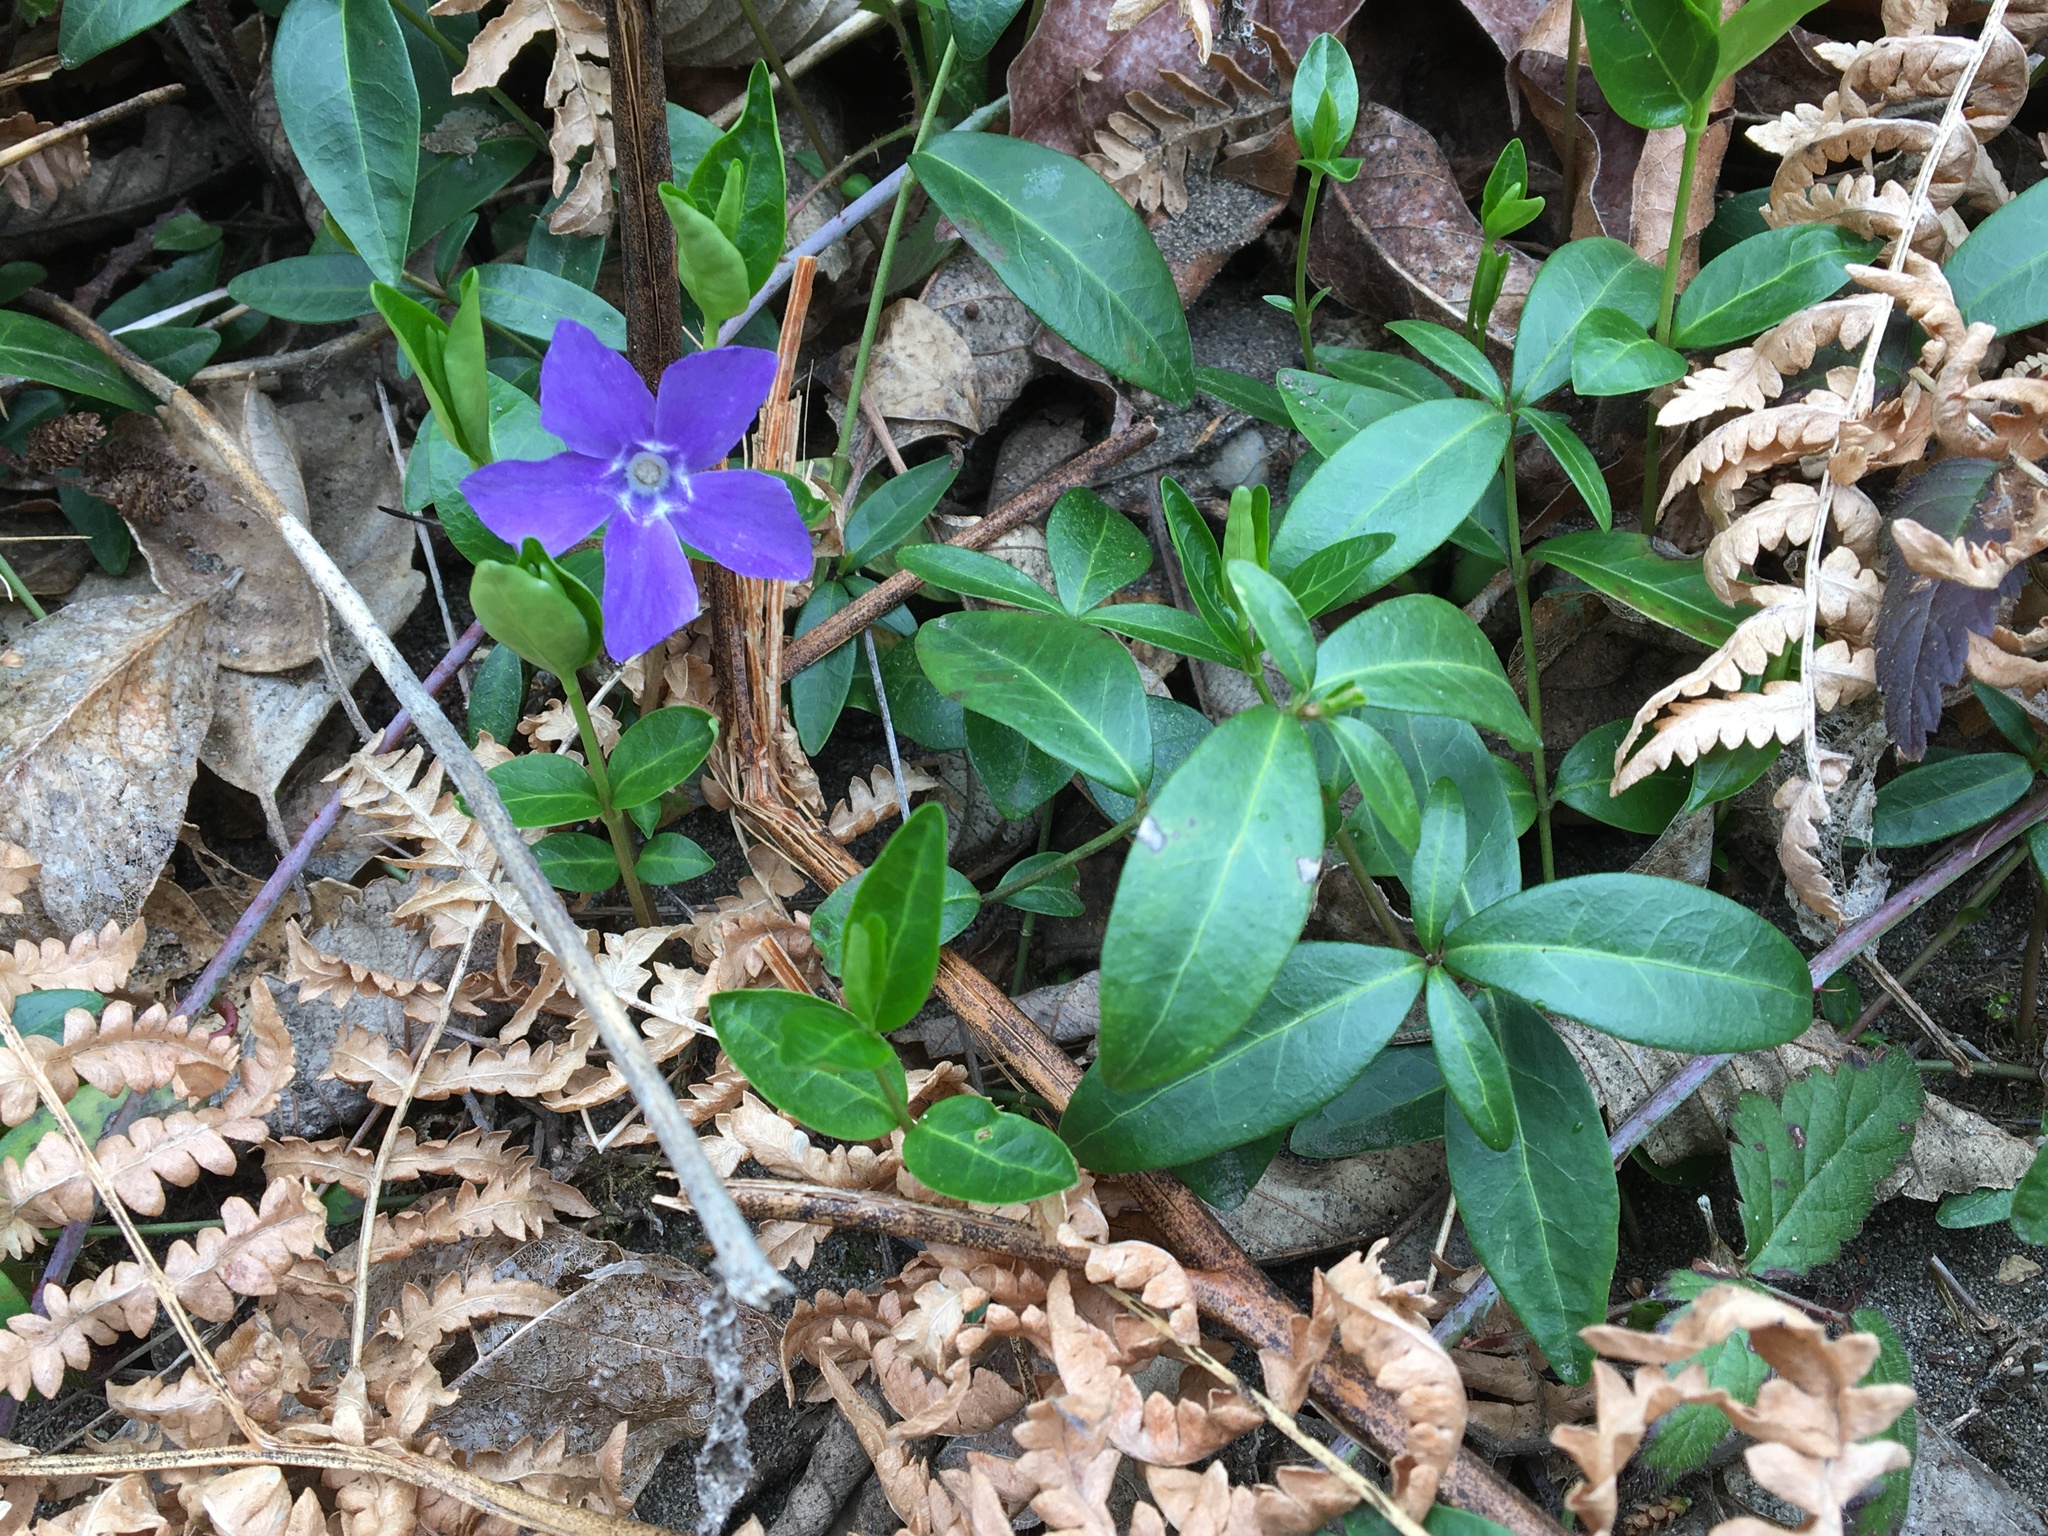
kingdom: Plantae
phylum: Tracheophyta
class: Magnoliopsida
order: Gentianales
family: Apocynaceae
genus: Vinca
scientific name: Vinca minor
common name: Lesser periwinkle
